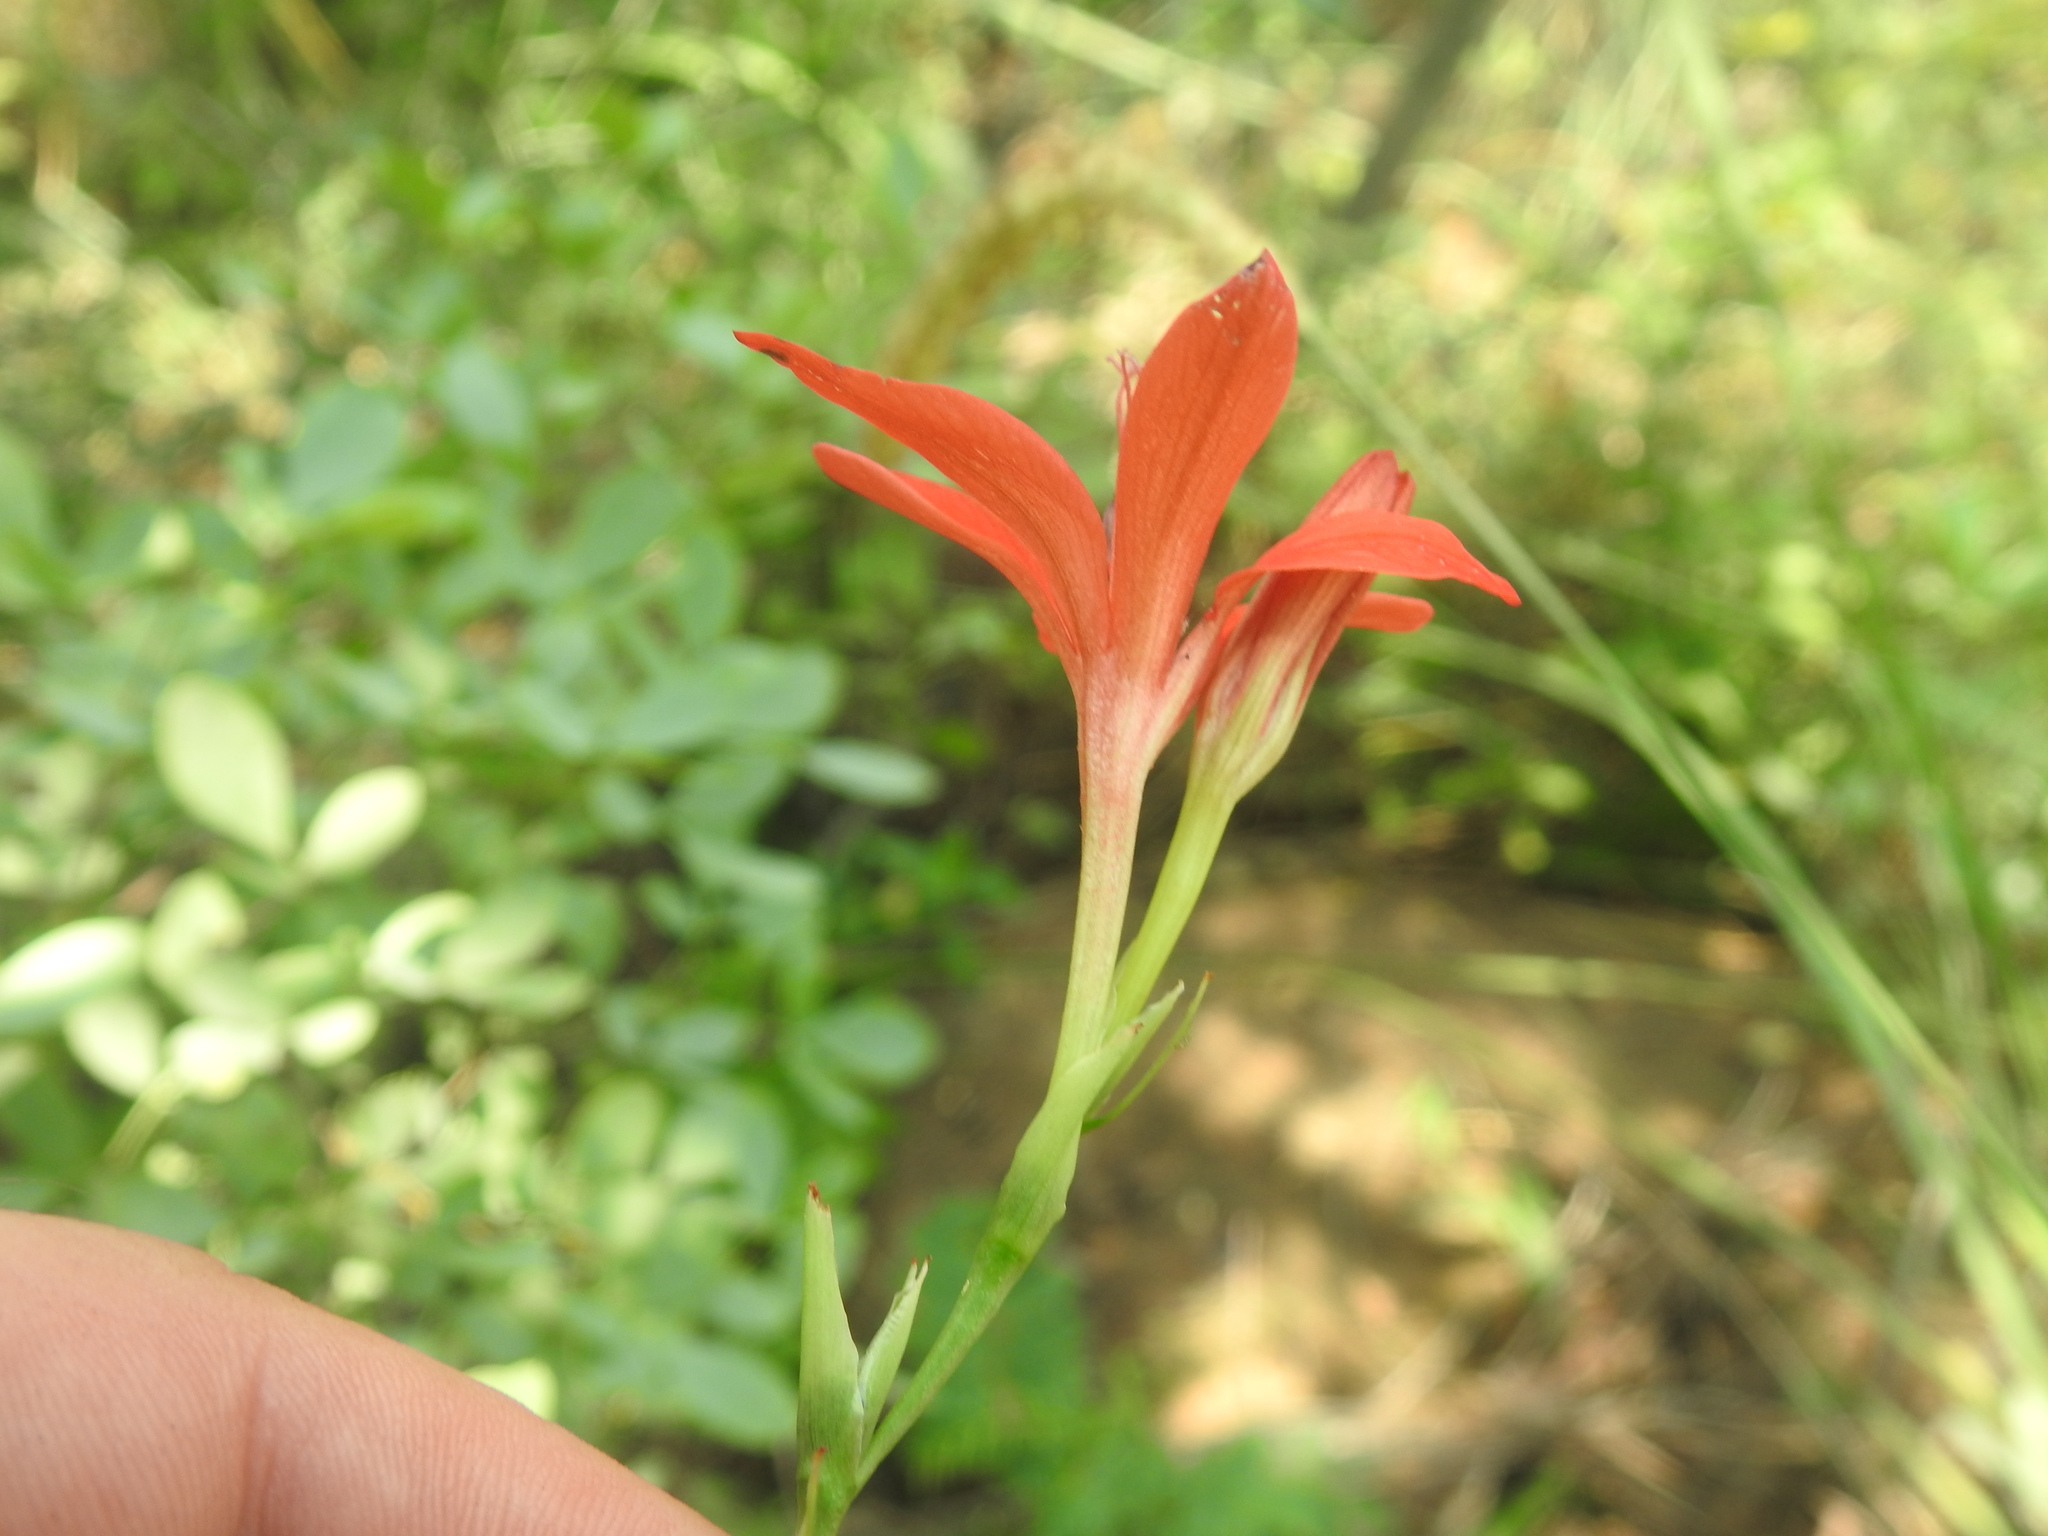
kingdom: Plantae
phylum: Tracheophyta
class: Liliopsida
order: Asparagales
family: Iridaceae
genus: Freesia
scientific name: Freesia grandiflora
